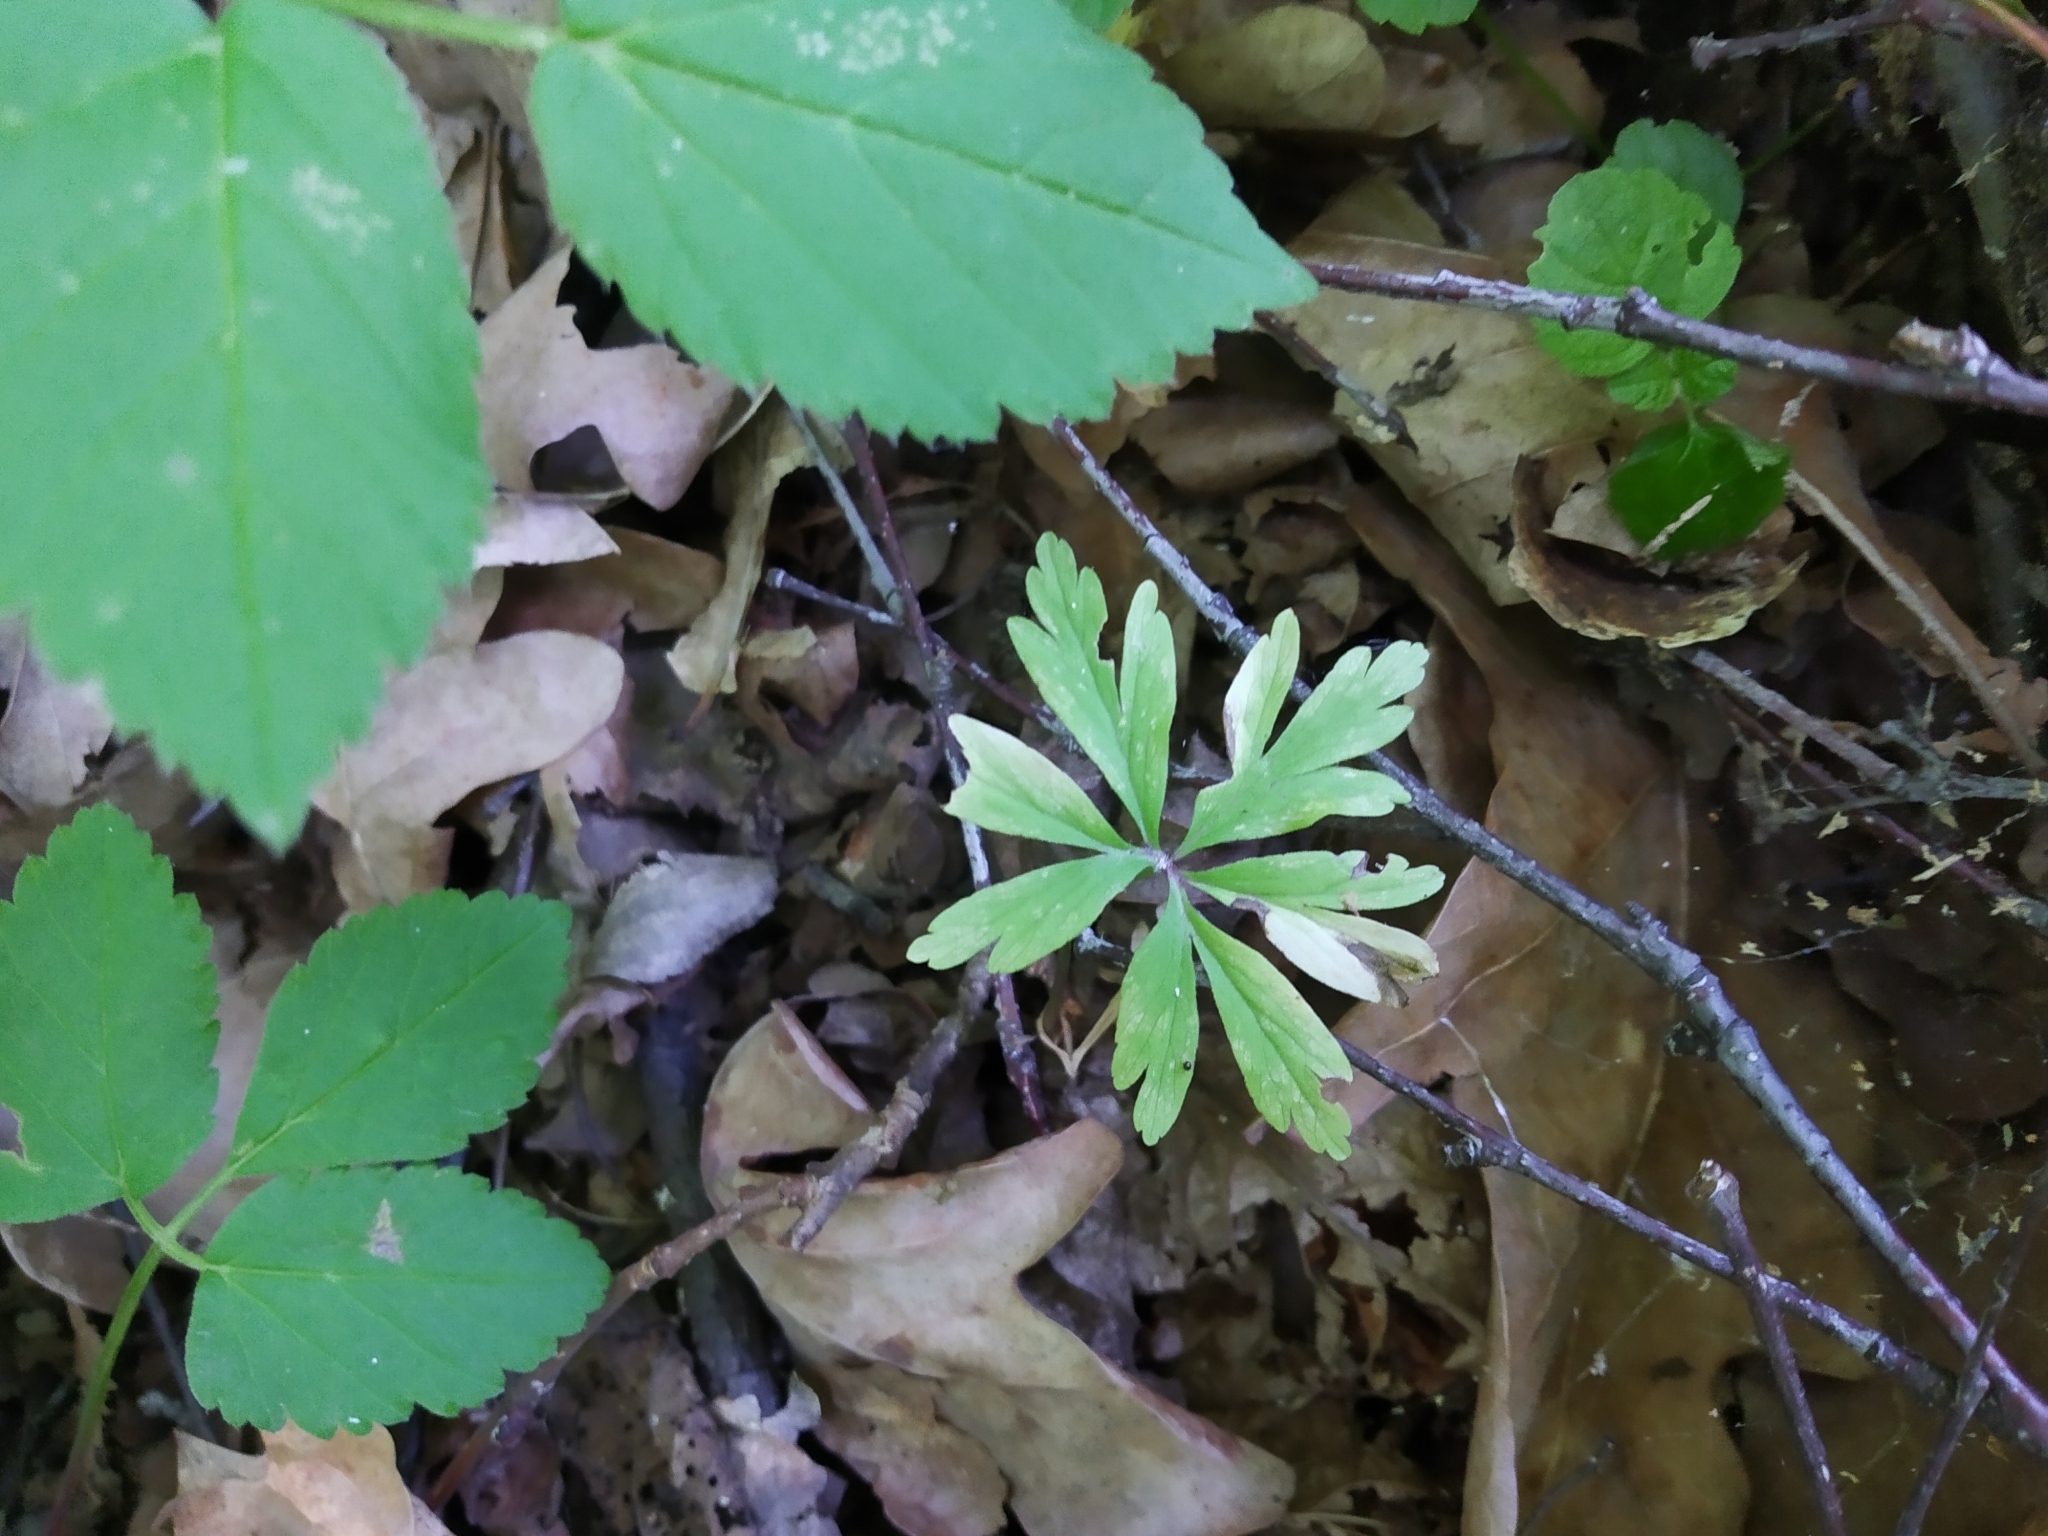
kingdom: Plantae
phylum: Tracheophyta
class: Magnoliopsida
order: Ranunculales
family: Ranunculaceae
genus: Anemone
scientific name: Anemone ranunculoides
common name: Yellow anemone
